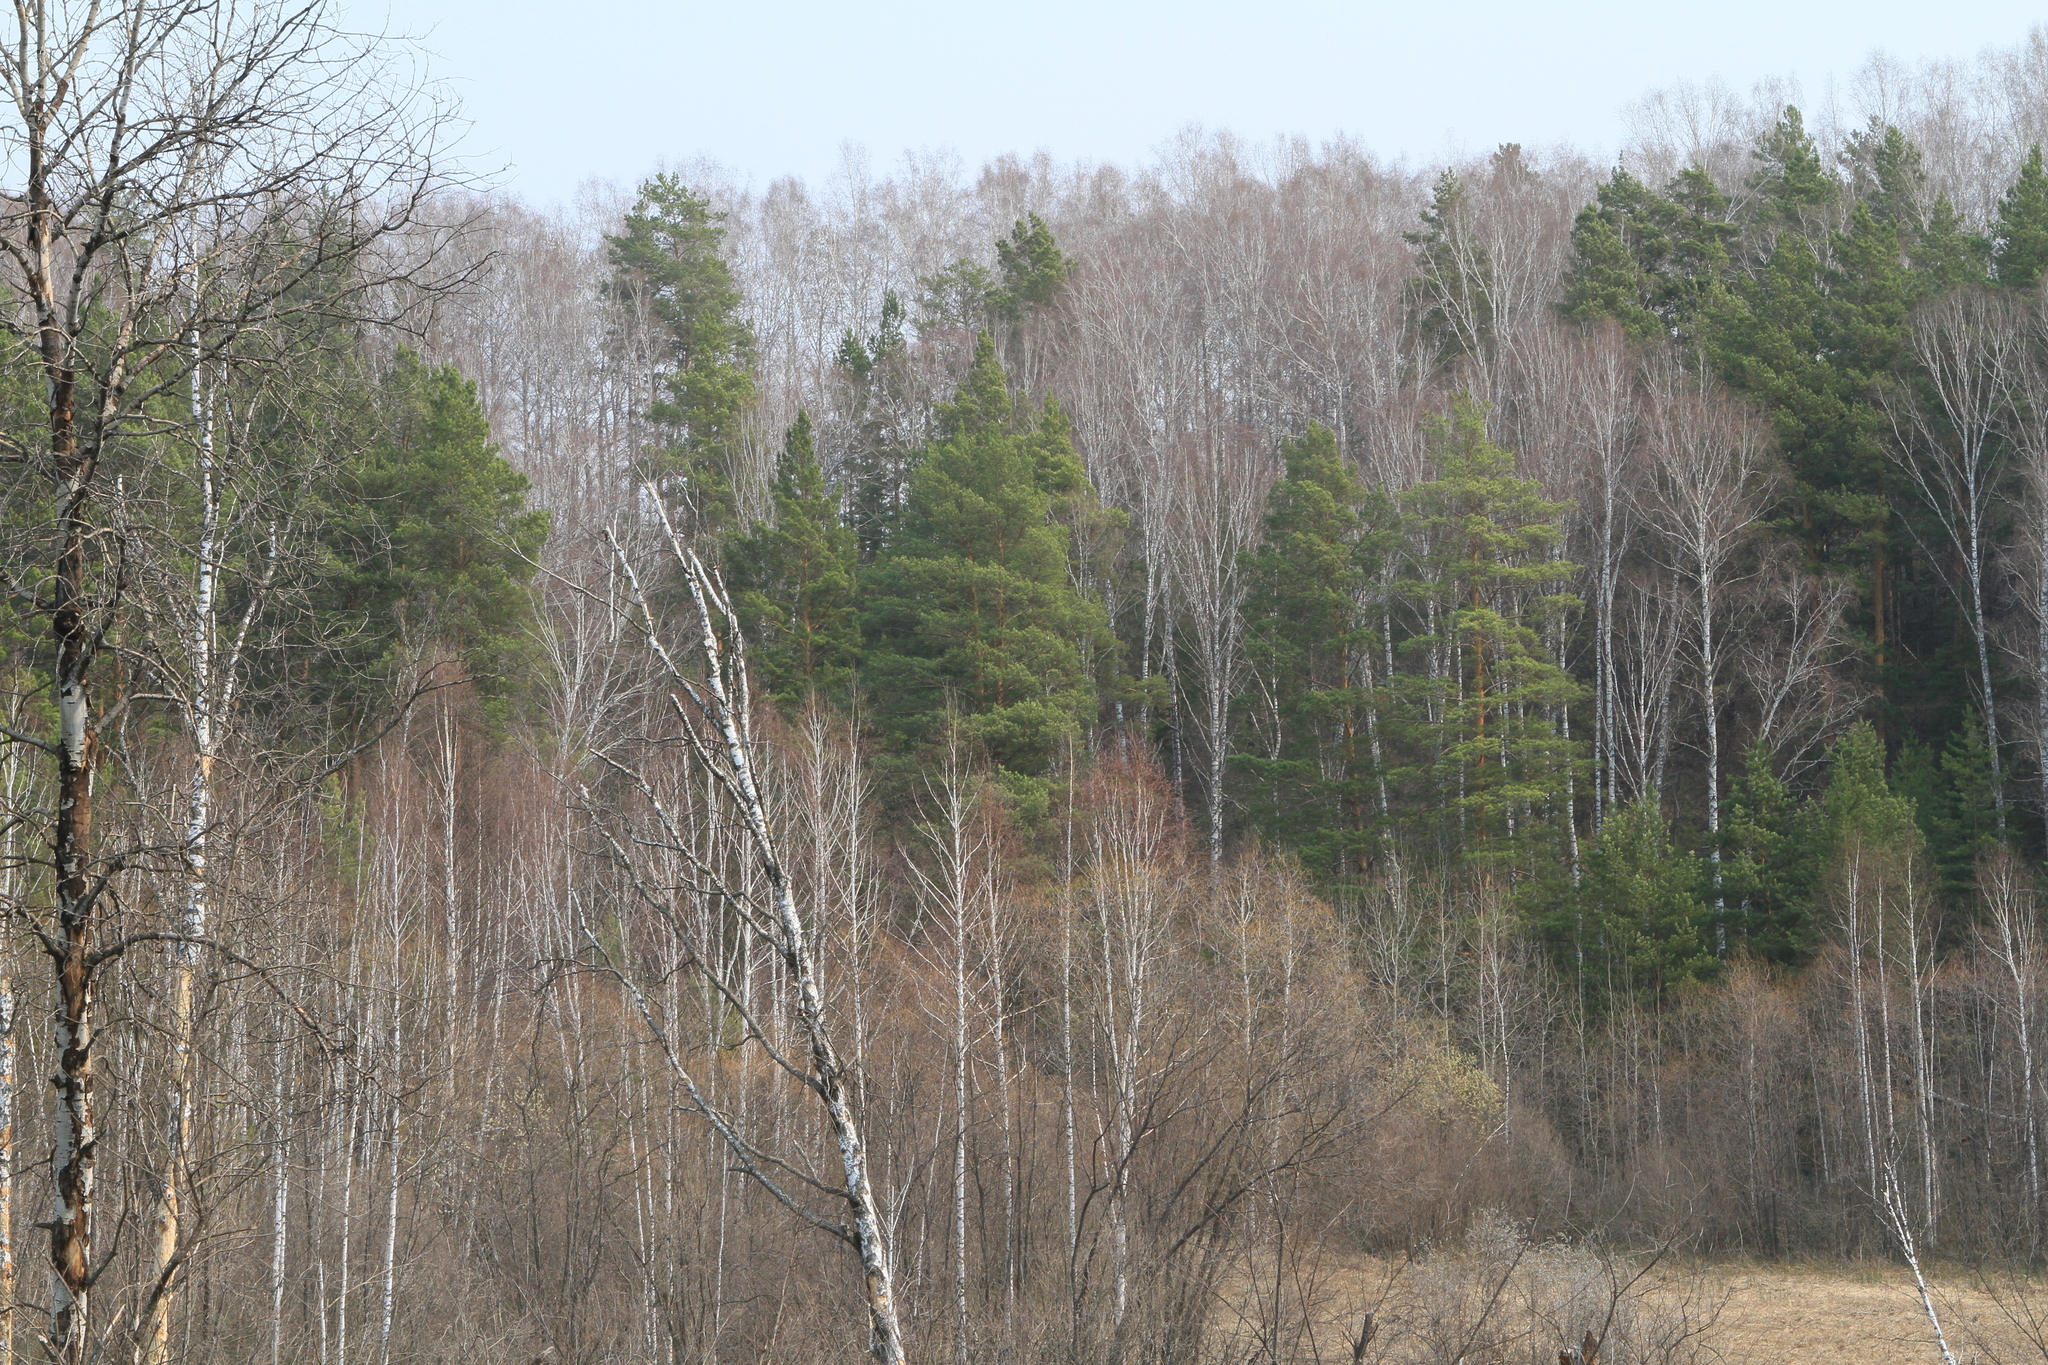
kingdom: Plantae
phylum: Tracheophyta
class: Pinopsida
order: Pinales
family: Pinaceae
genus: Pinus
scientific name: Pinus sylvestris
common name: Scots pine
